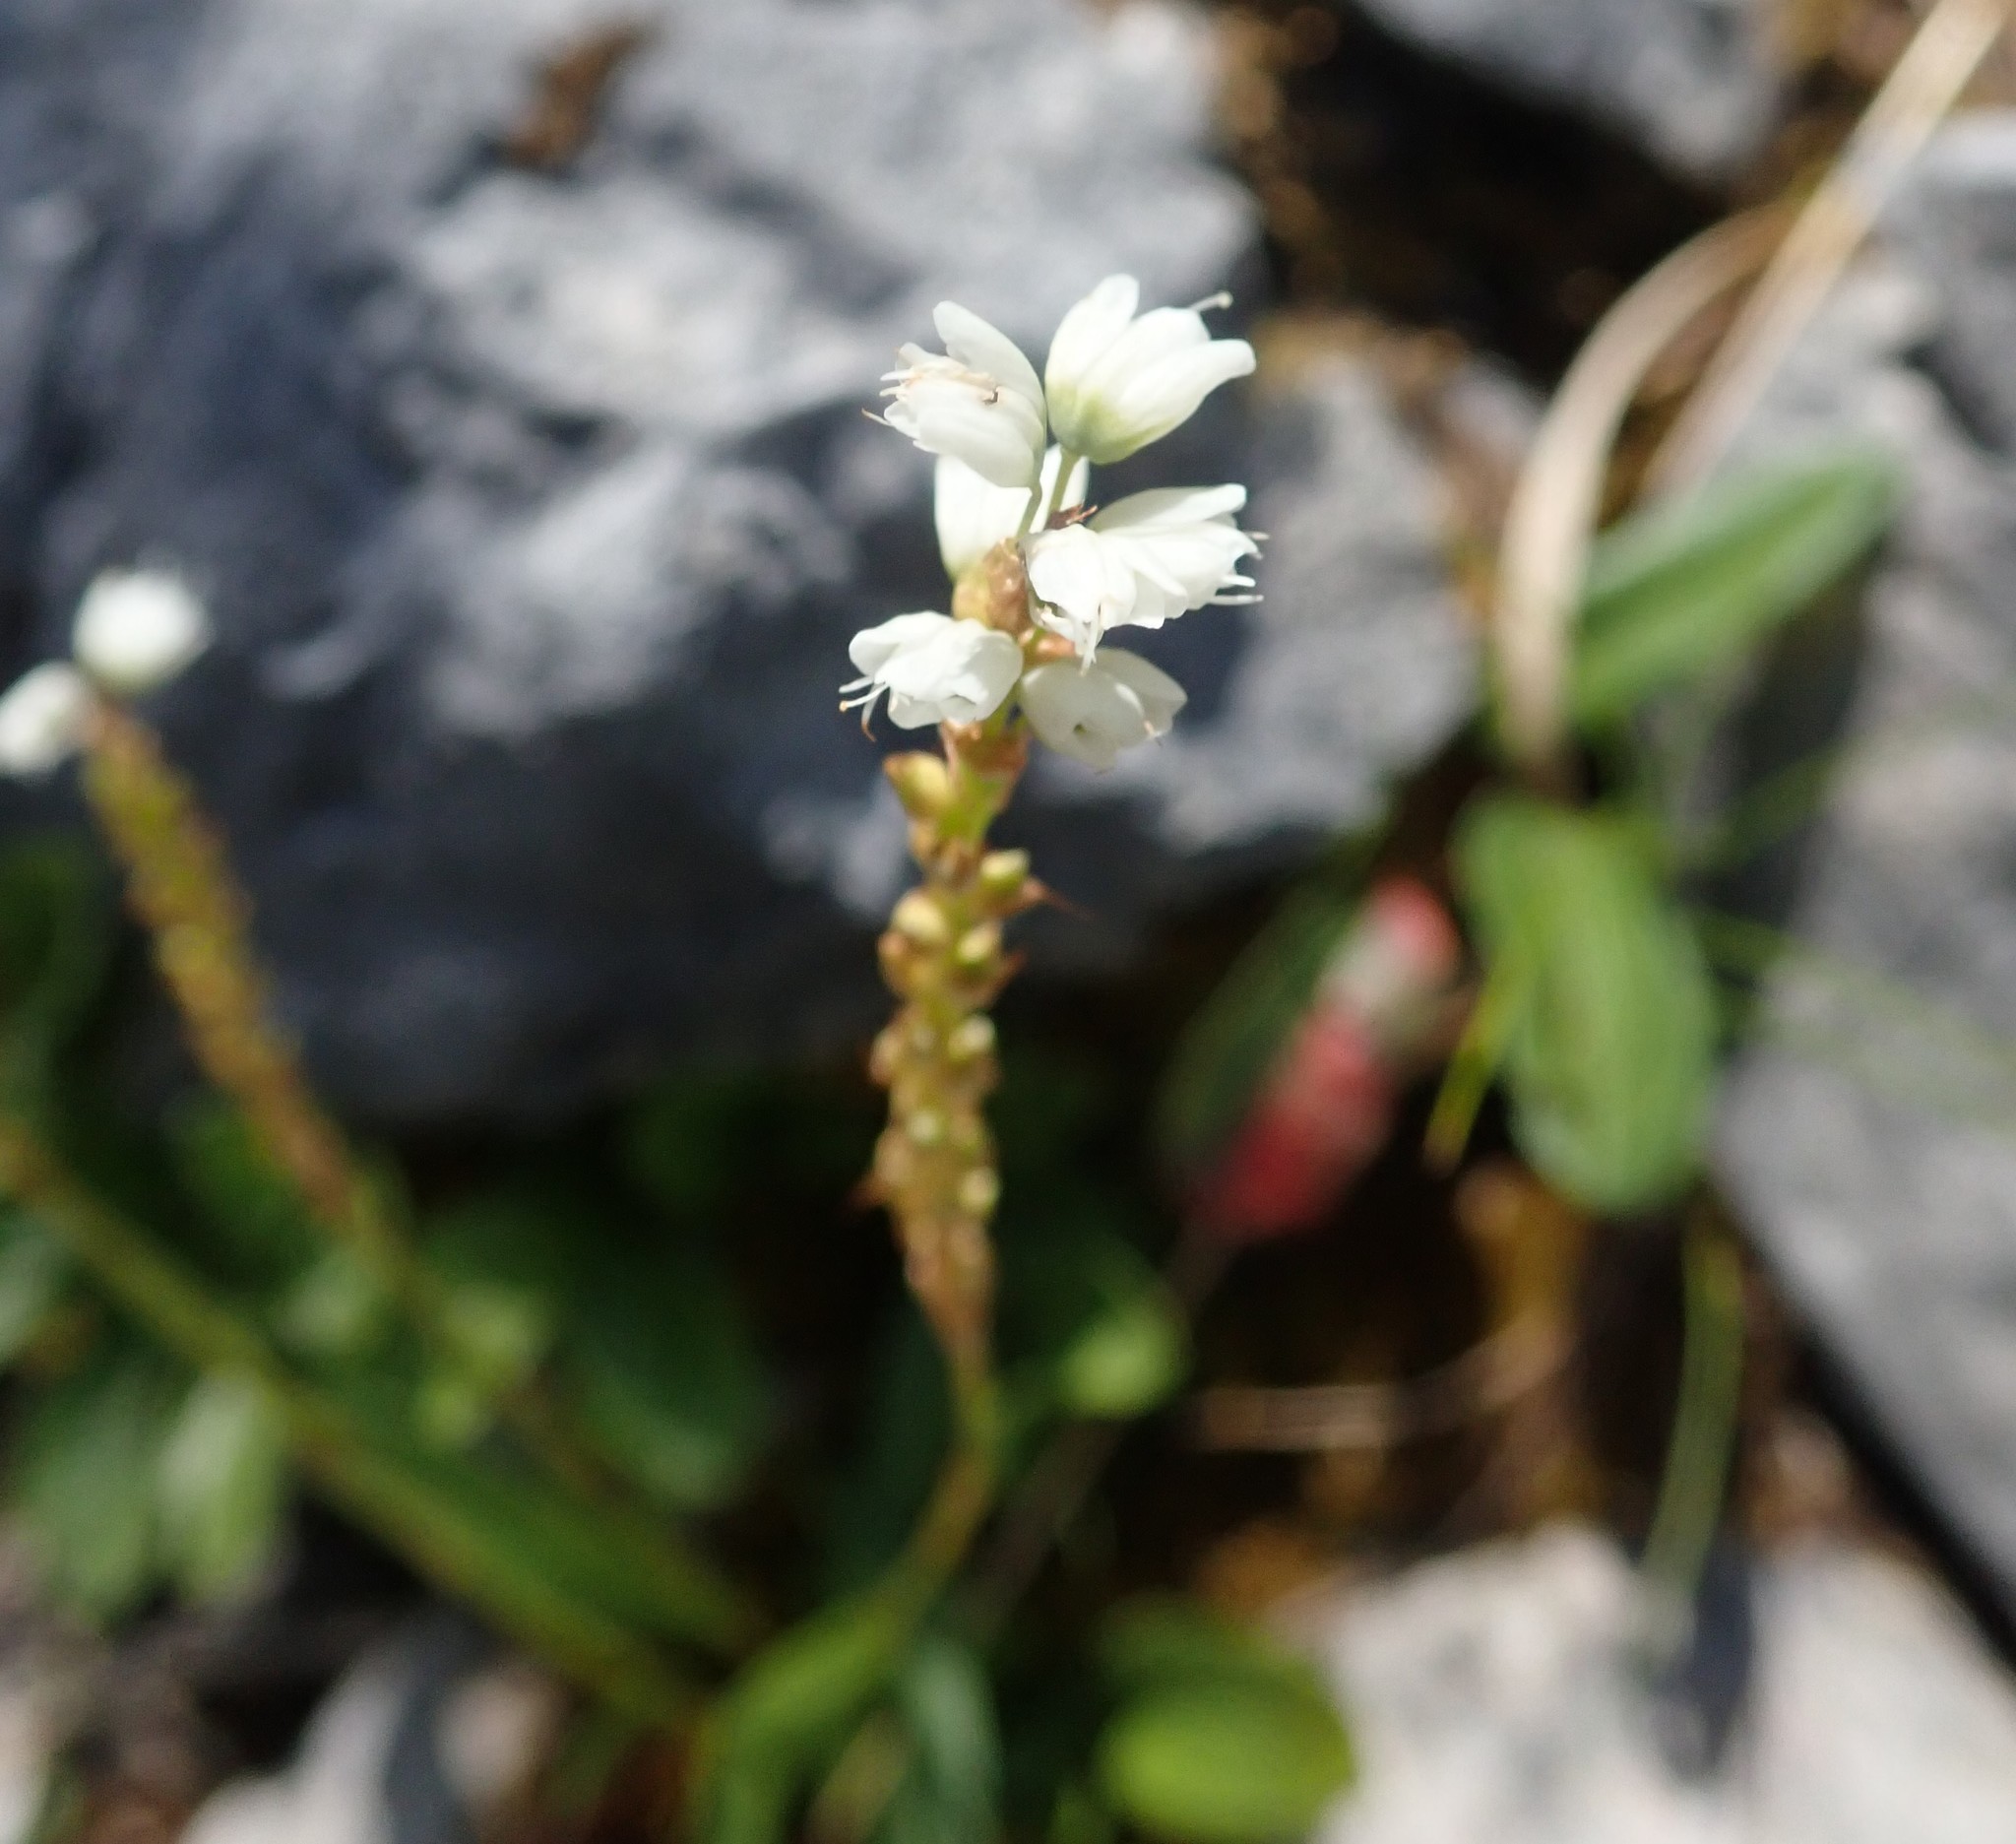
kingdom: Plantae
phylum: Tracheophyta
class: Magnoliopsida
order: Caryophyllales
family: Polygonaceae
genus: Bistorta
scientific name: Bistorta vivipara
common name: Alpine bistort
